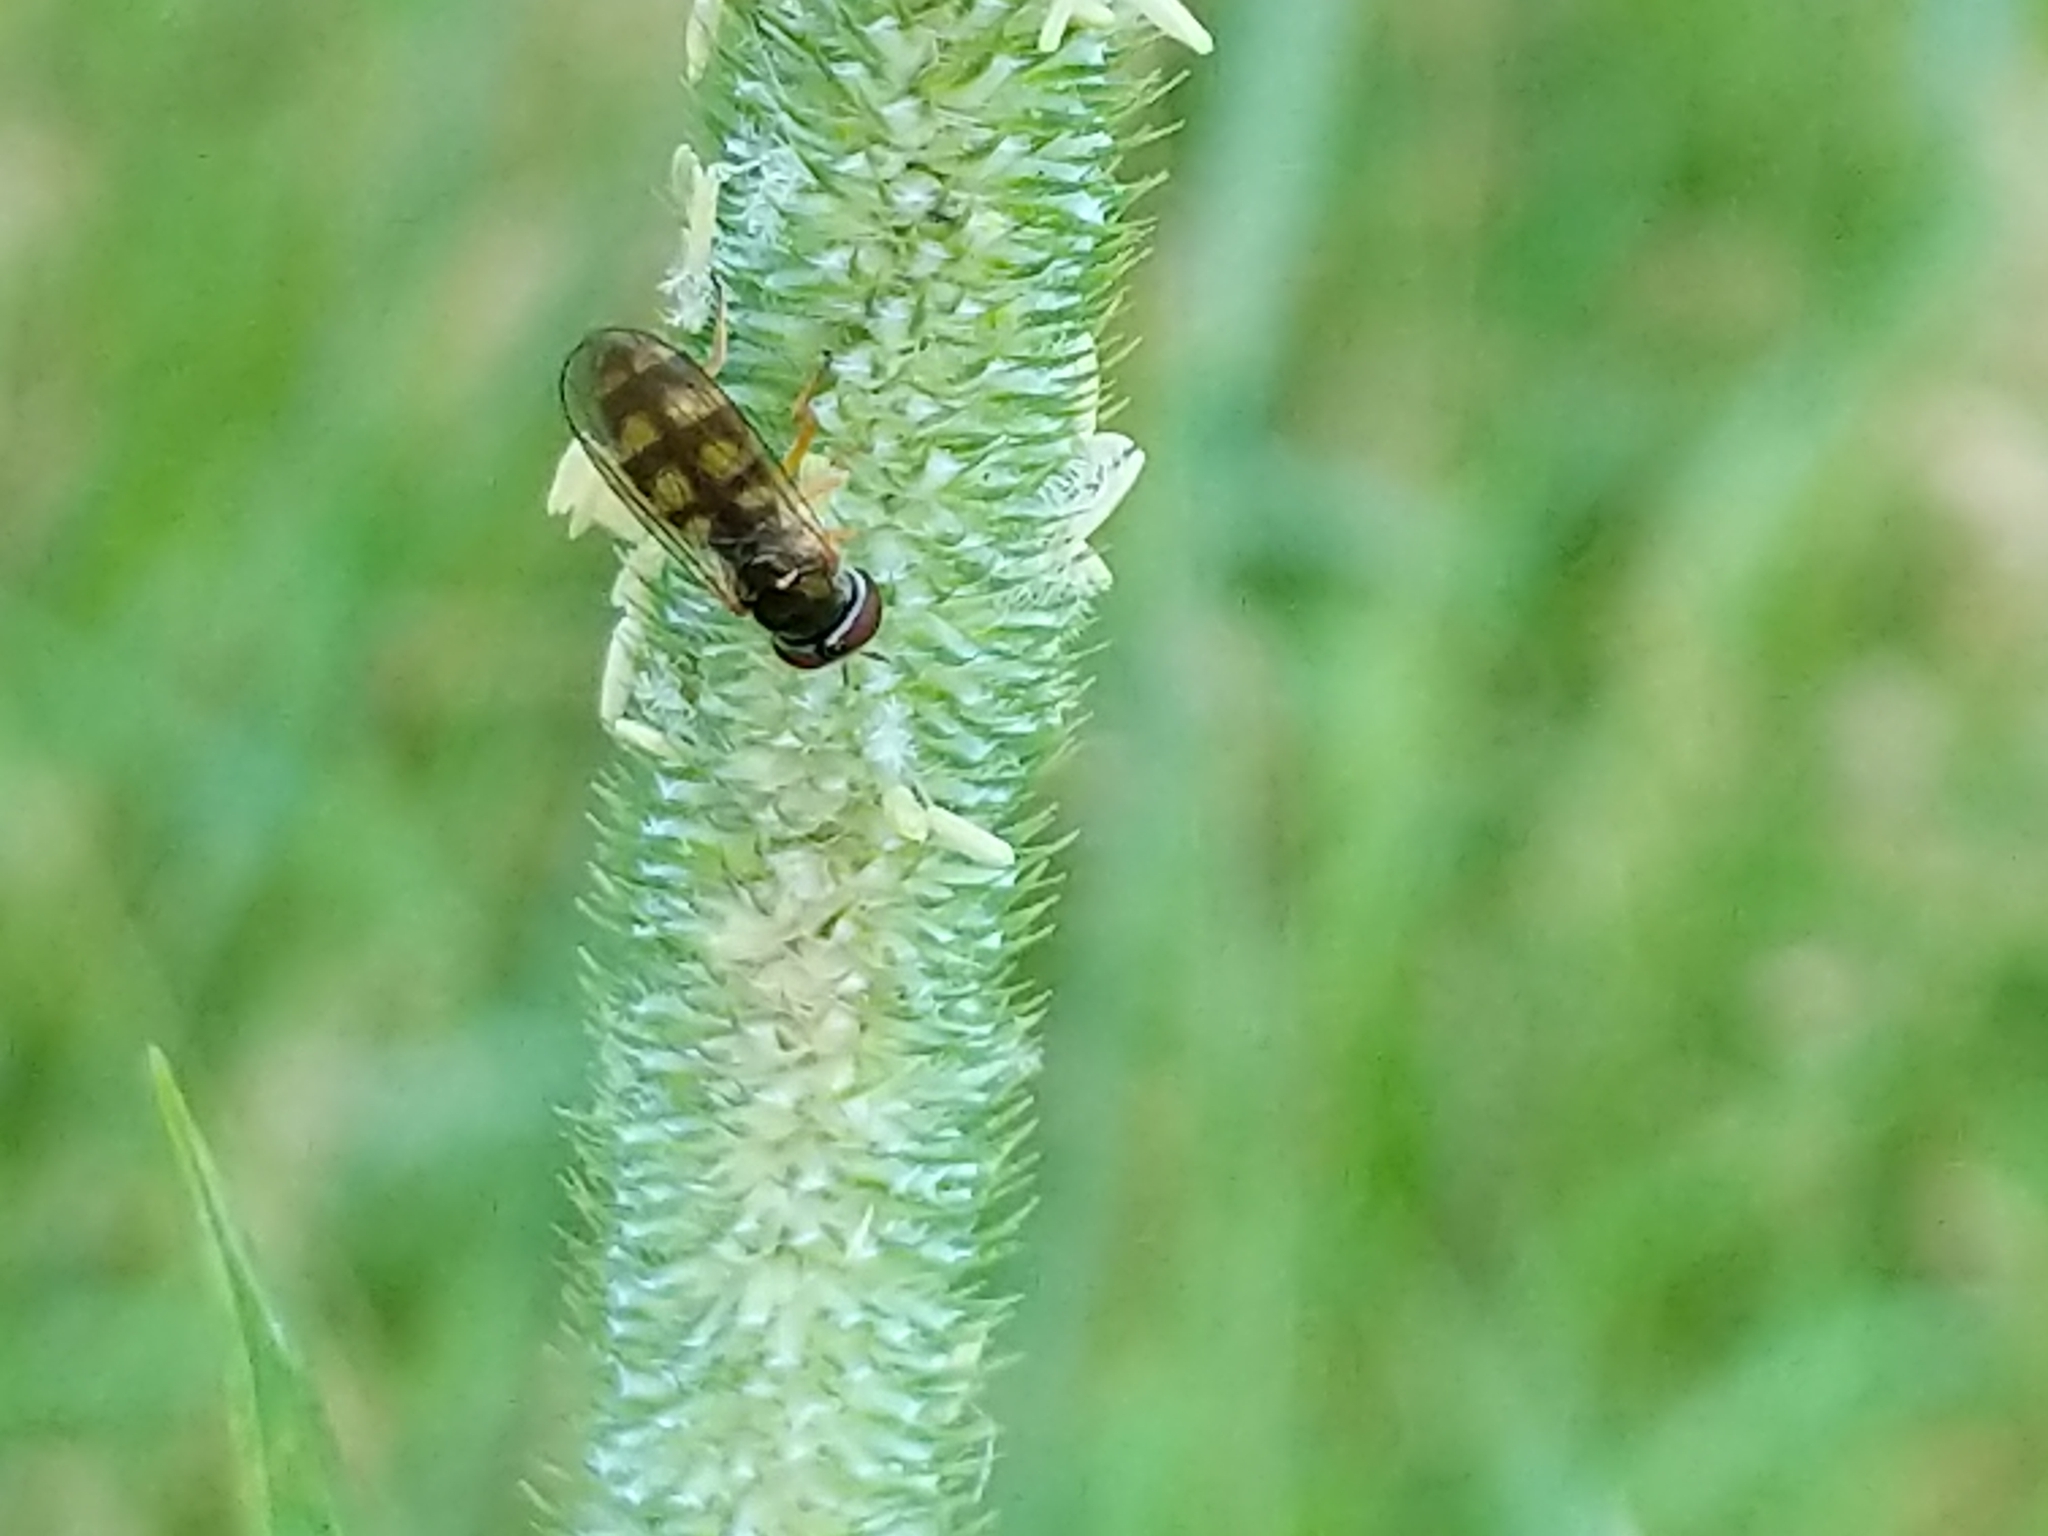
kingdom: Animalia
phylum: Arthropoda
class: Insecta
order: Diptera
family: Syrphidae
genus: Melanostoma
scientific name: Melanostoma mellina
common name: Hover fly
